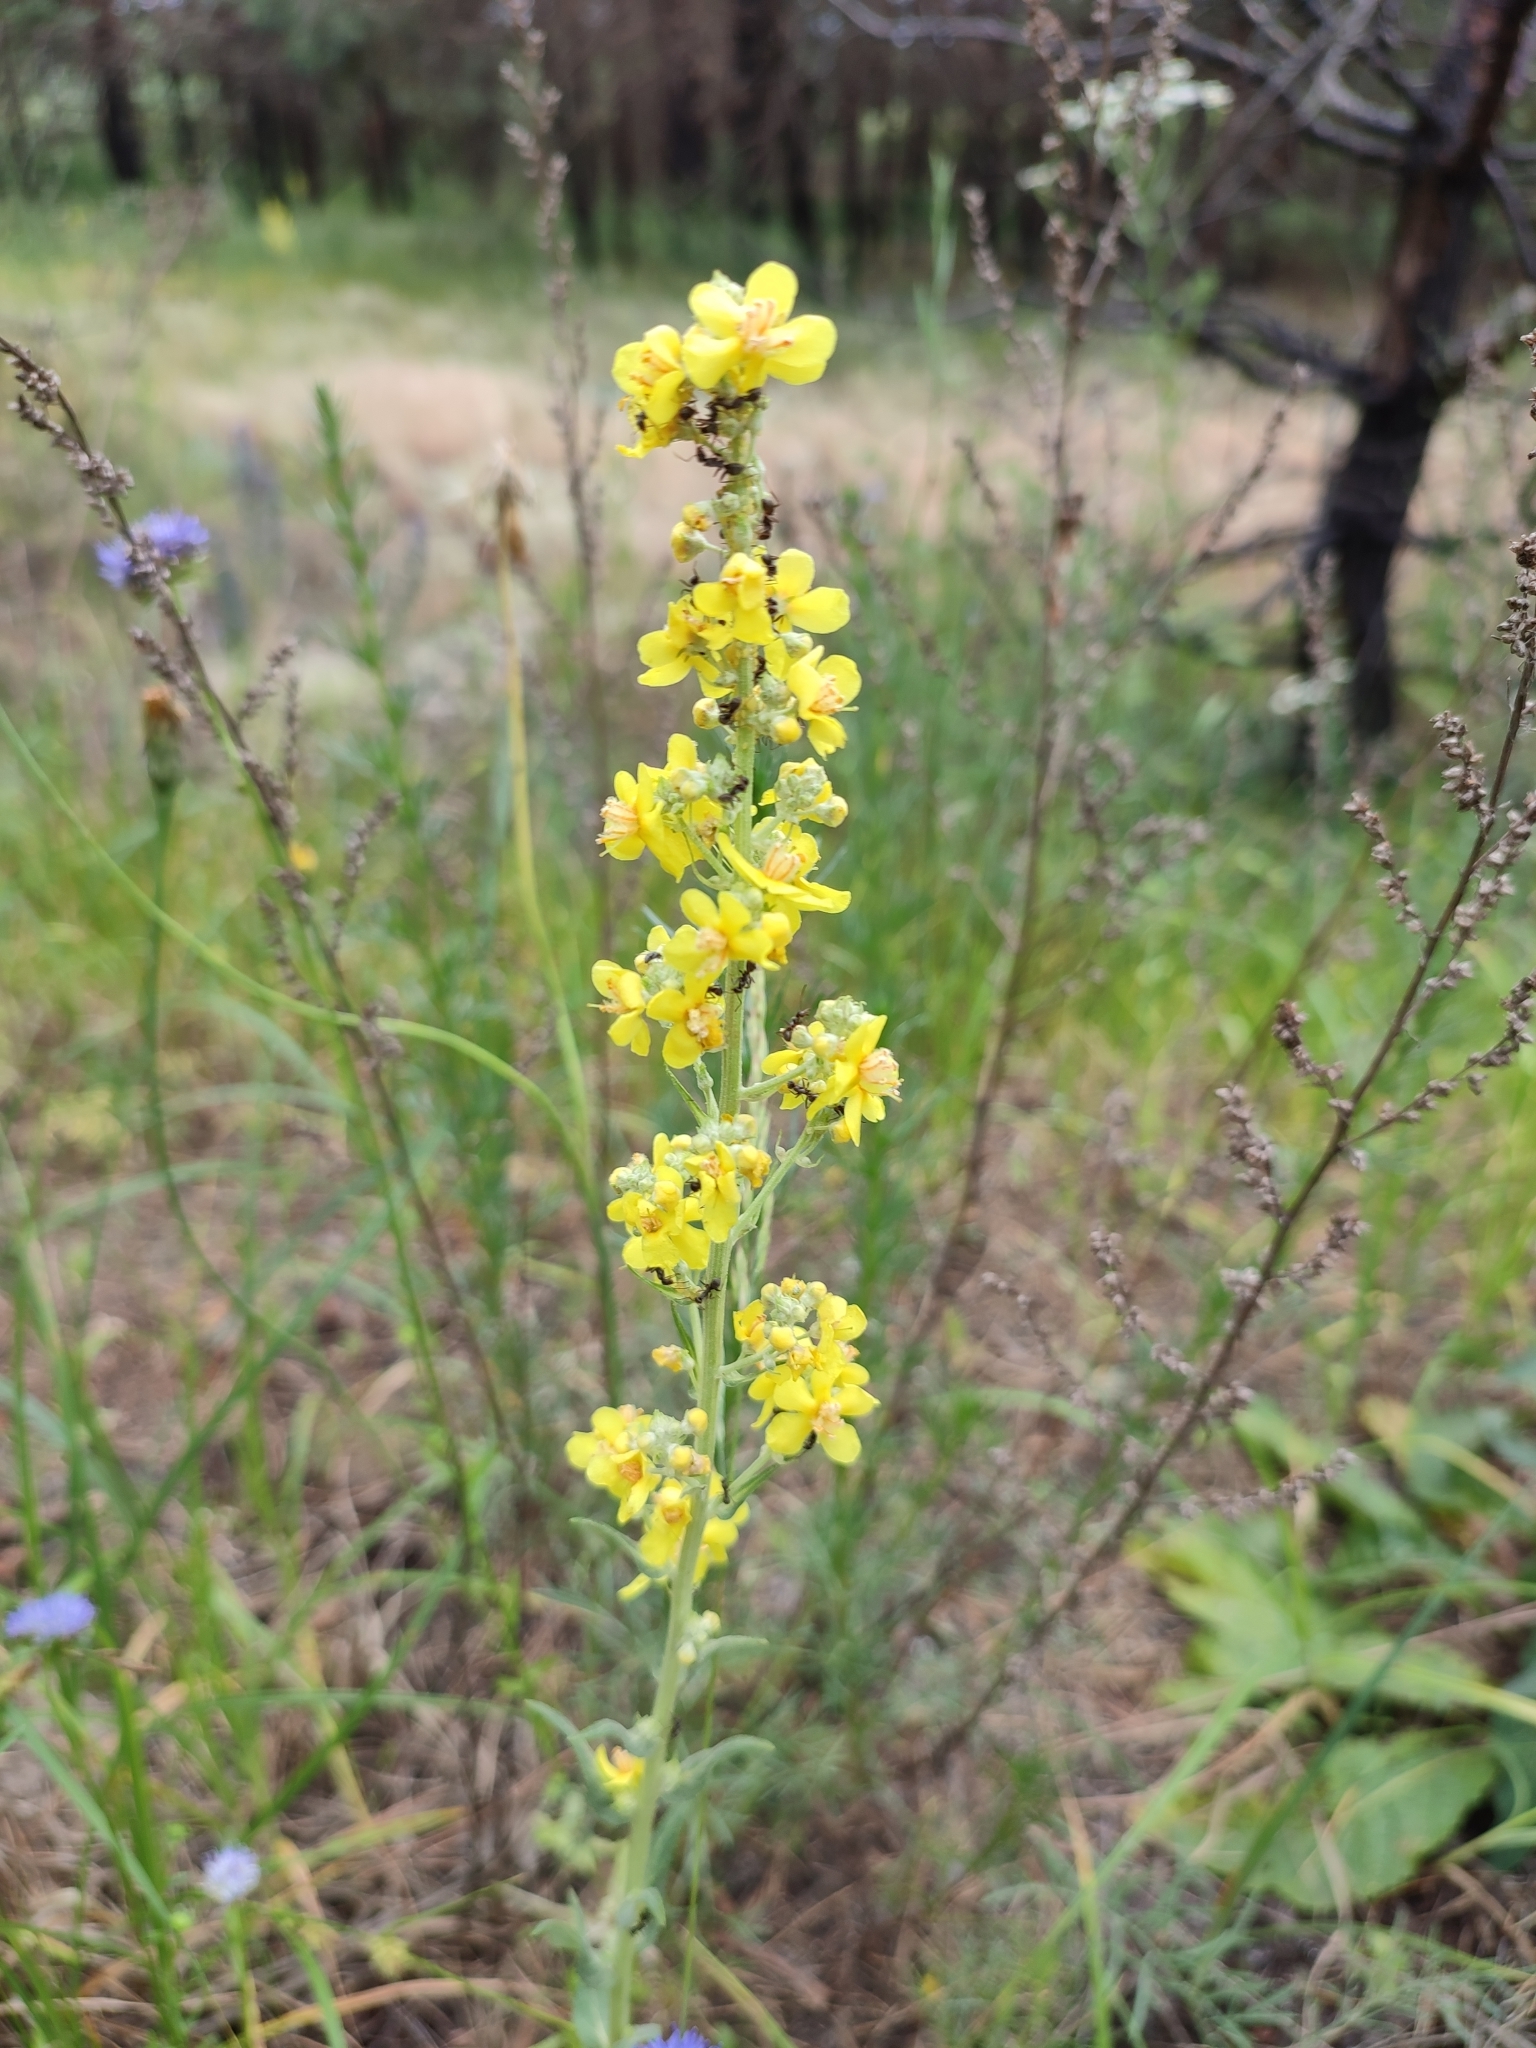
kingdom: Plantae
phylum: Tracheophyta
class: Magnoliopsida
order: Lamiales
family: Scrophulariaceae
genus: Verbascum
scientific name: Verbascum lychnitis
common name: White mullein
